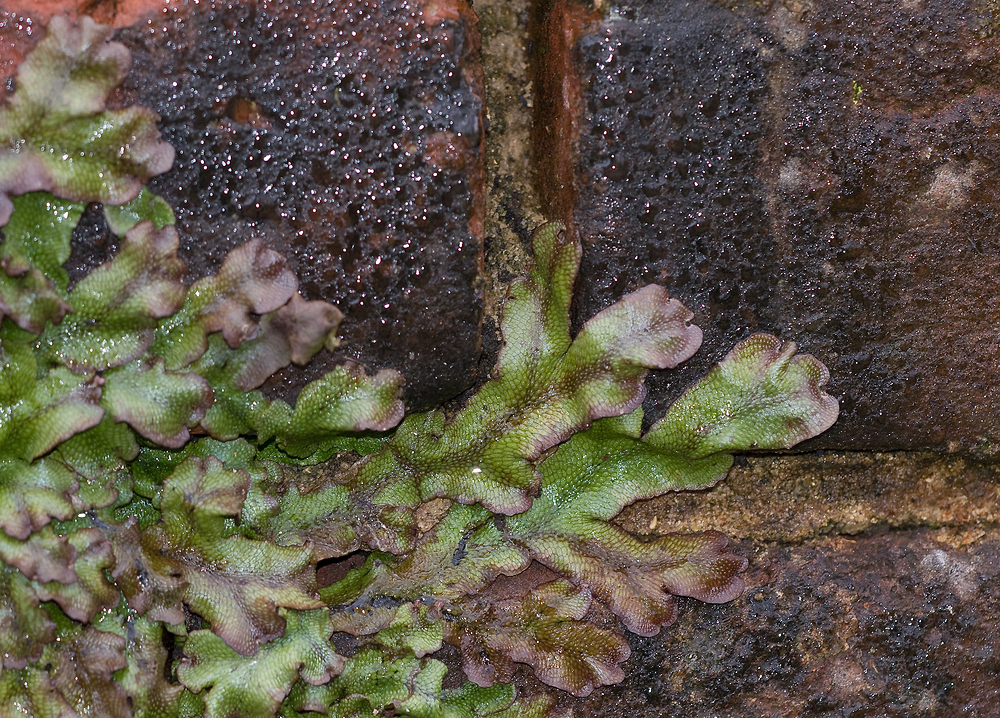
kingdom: Plantae
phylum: Marchantiophyta
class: Marchantiopsida
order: Marchantiales
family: Conocephalaceae
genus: Conocephalum
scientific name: Conocephalum conicum
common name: Great scented liverwort
